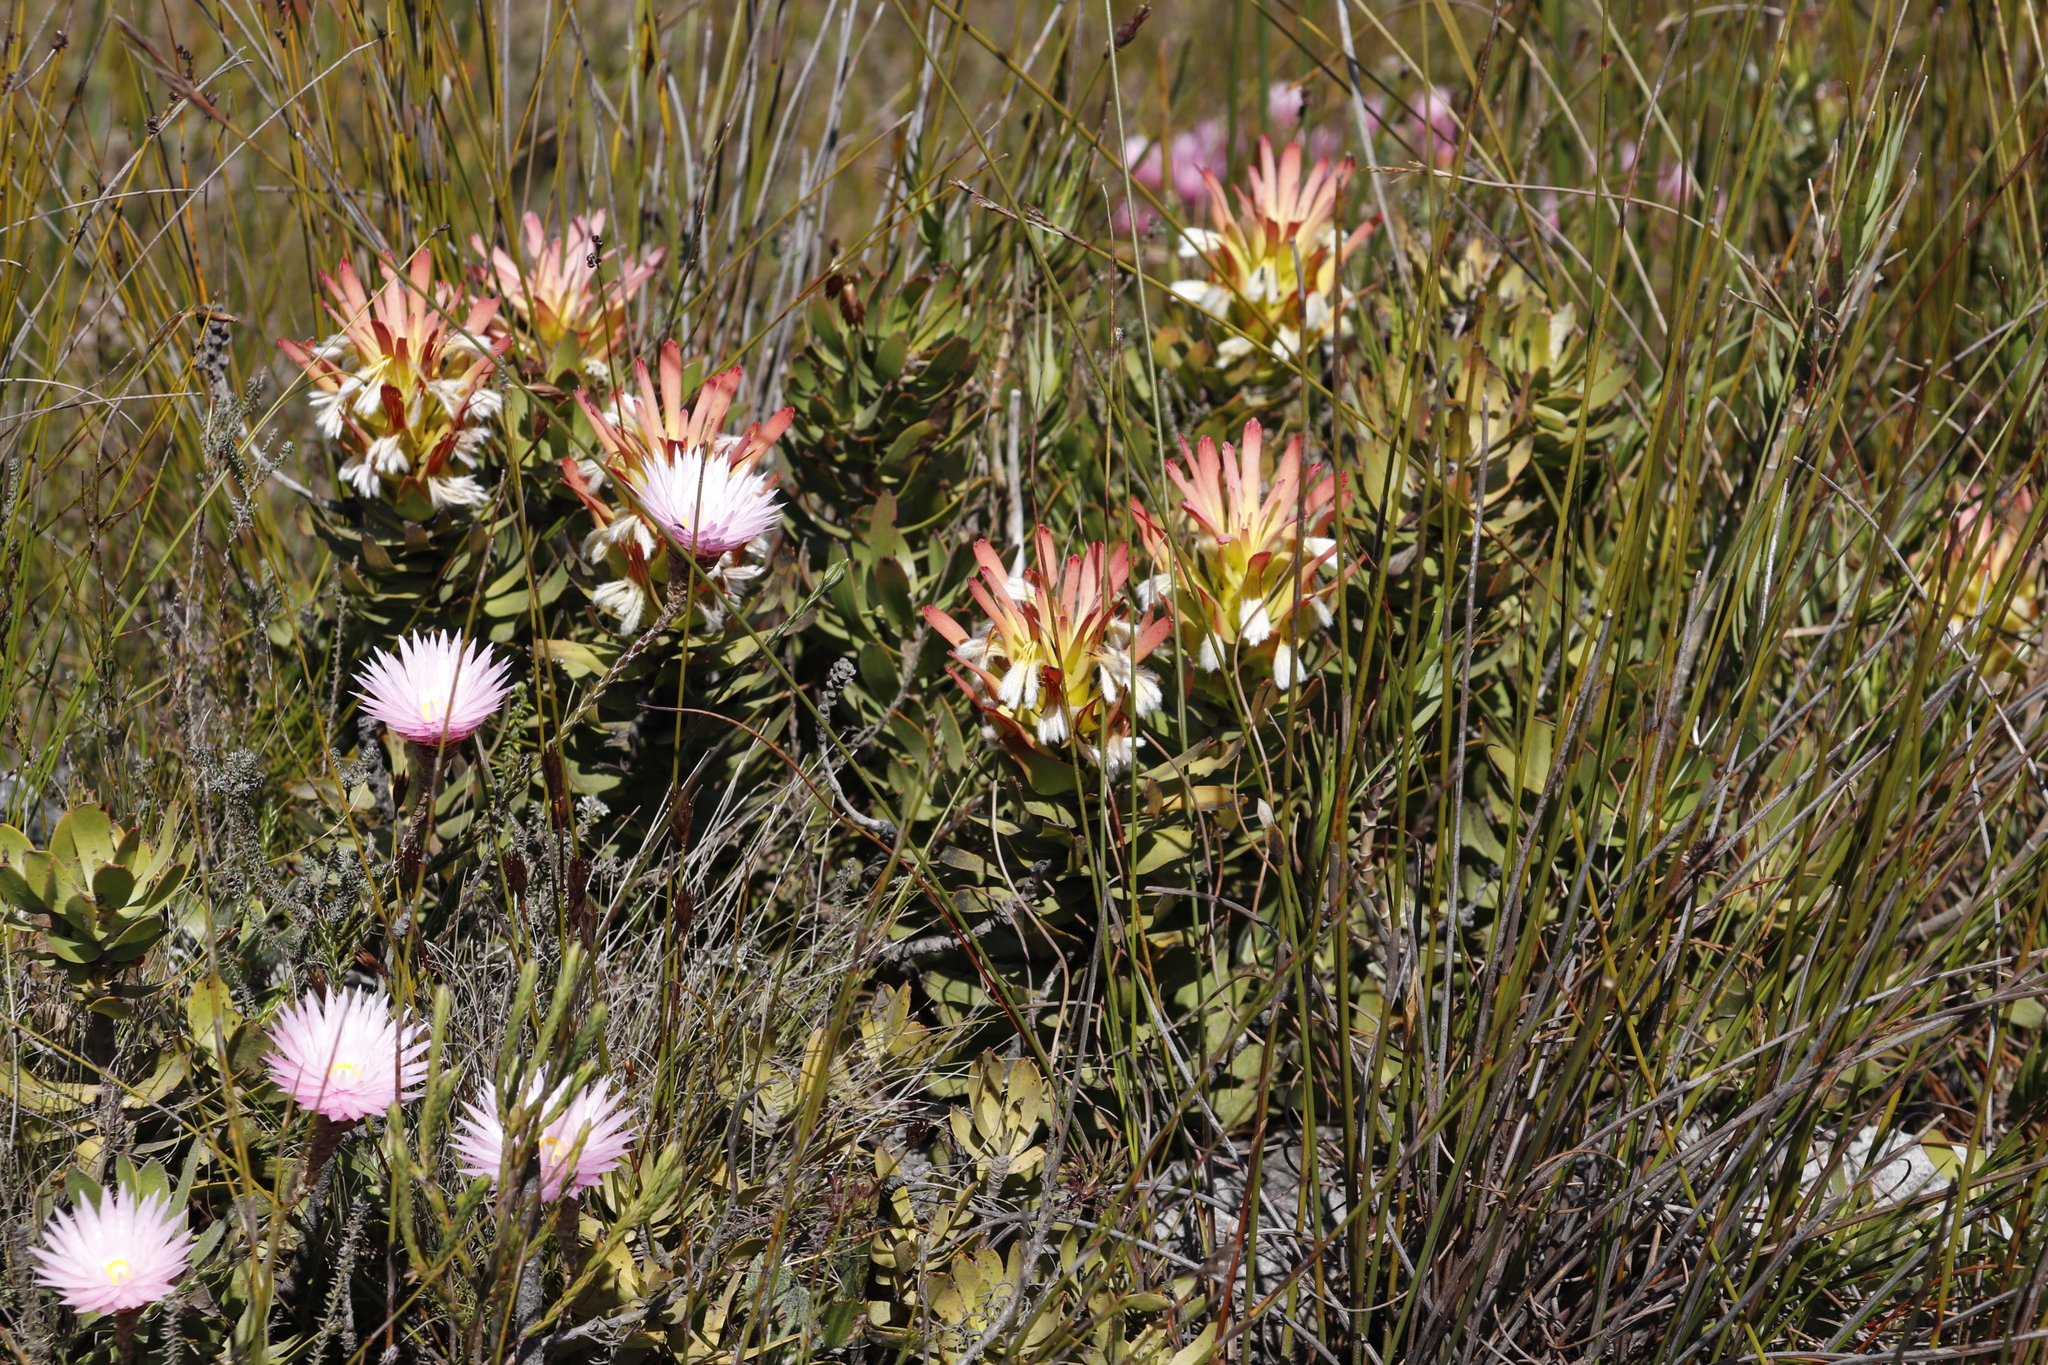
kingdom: Plantae
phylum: Tracheophyta
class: Magnoliopsida
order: Proteales
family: Proteaceae
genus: Mimetes
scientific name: Mimetes cucullatus
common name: Common pagoda
